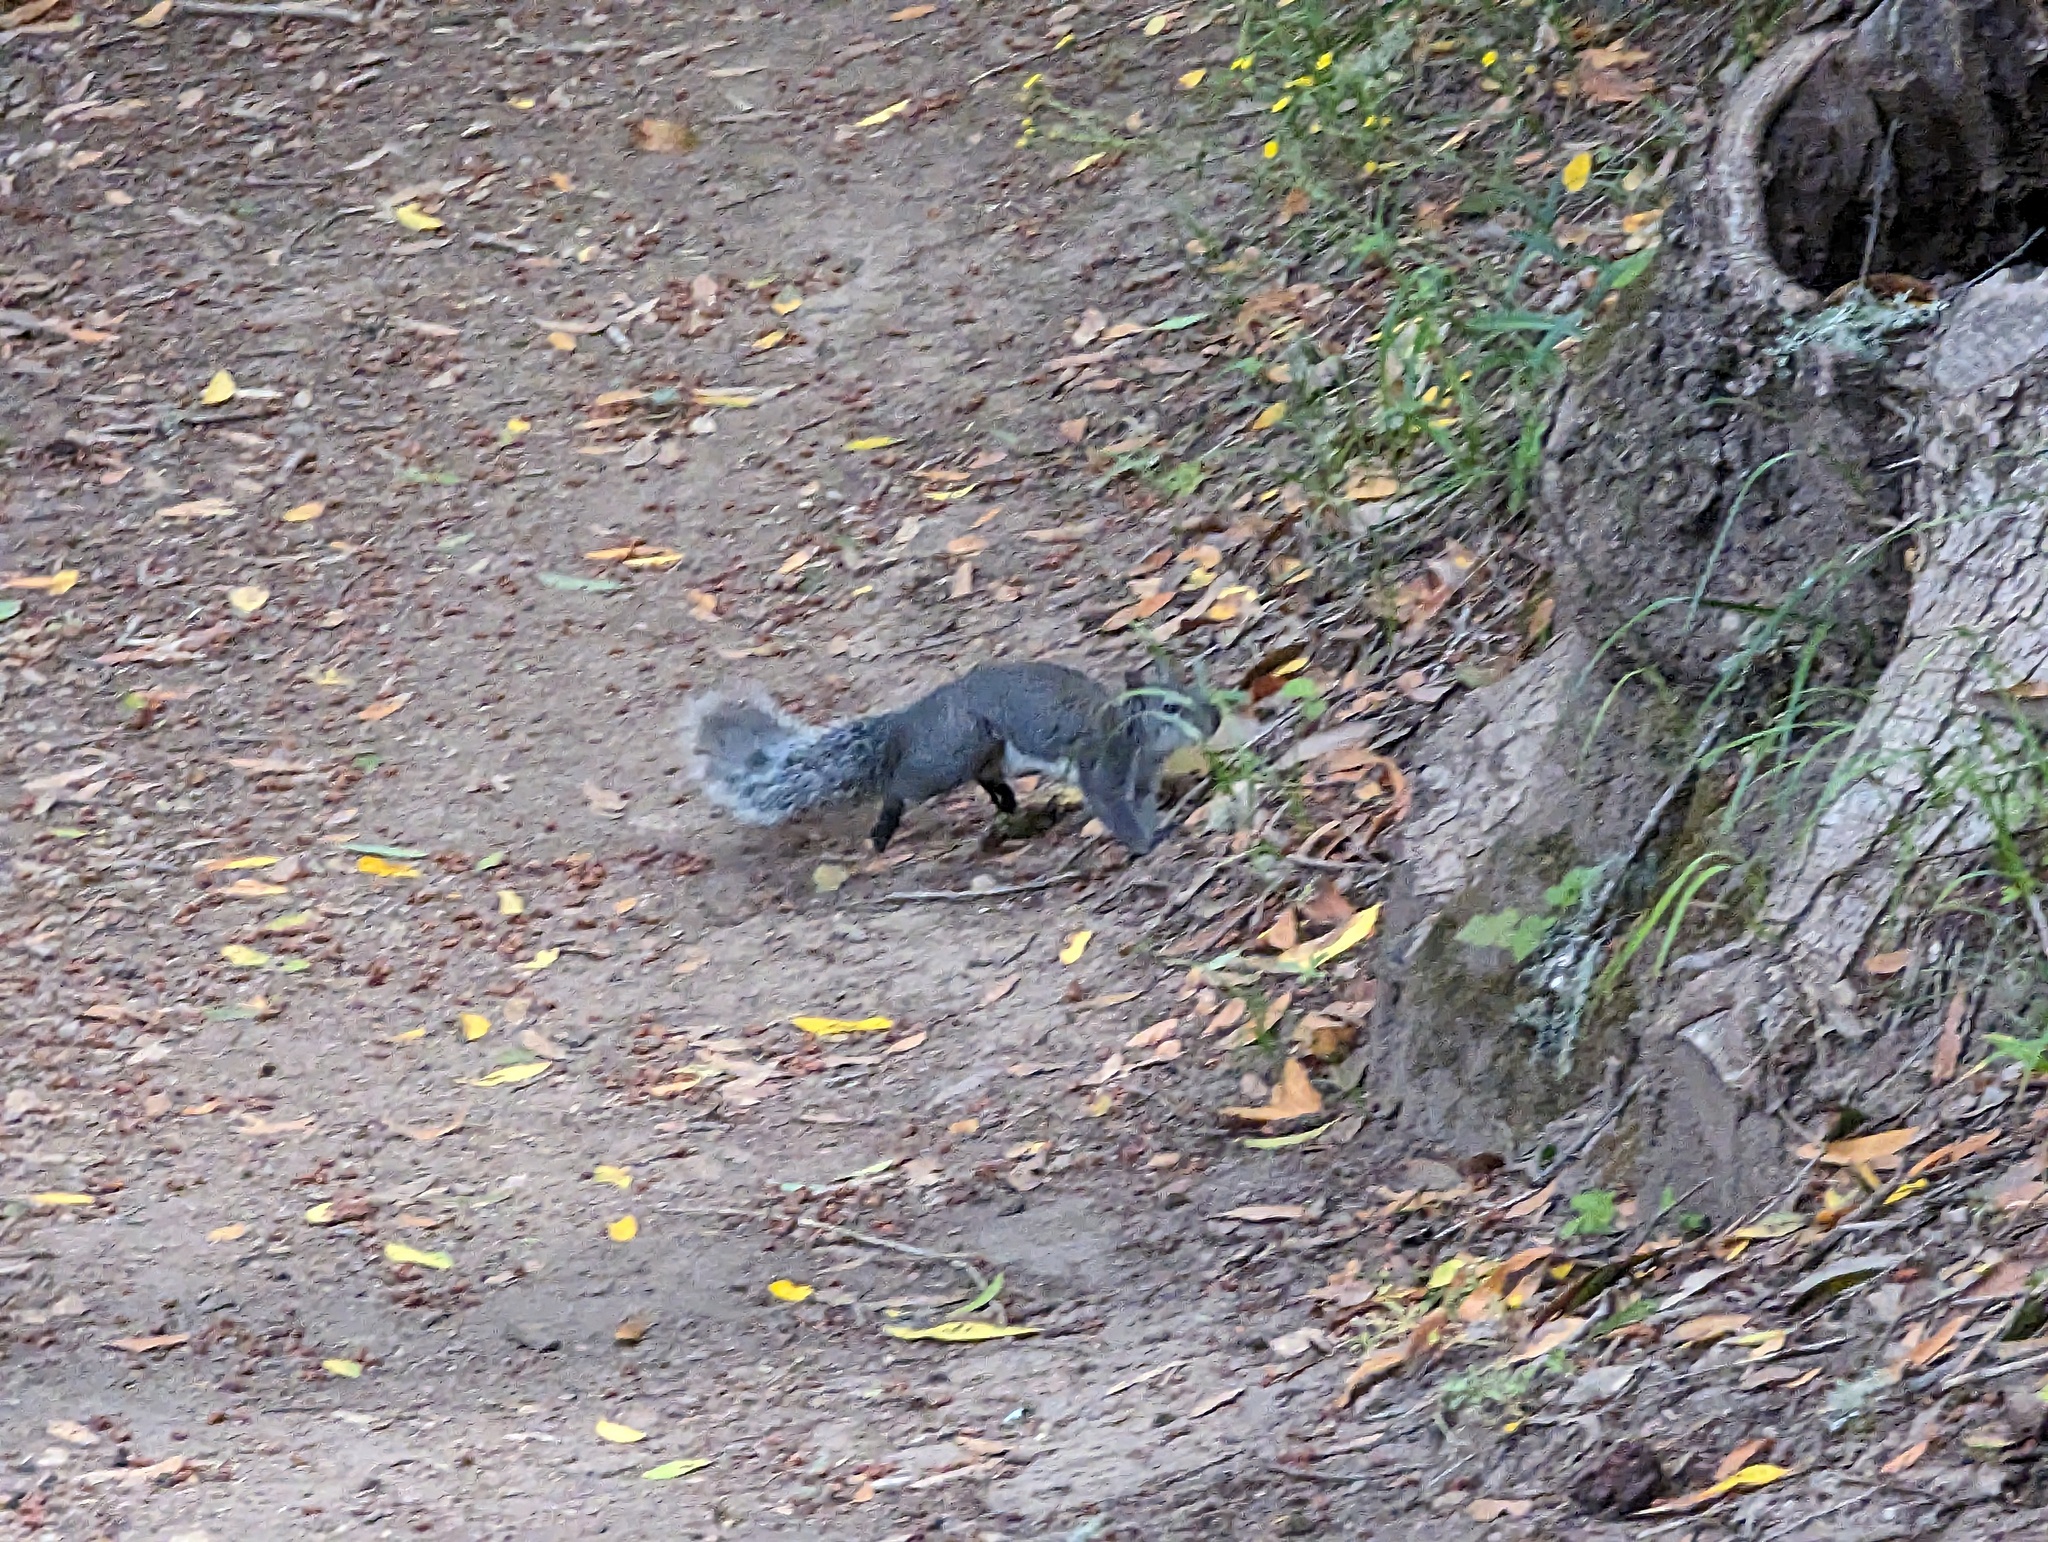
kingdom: Animalia
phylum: Chordata
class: Mammalia
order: Rodentia
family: Sciuridae
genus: Sciurus
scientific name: Sciurus griseus
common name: Western gray squirrel
